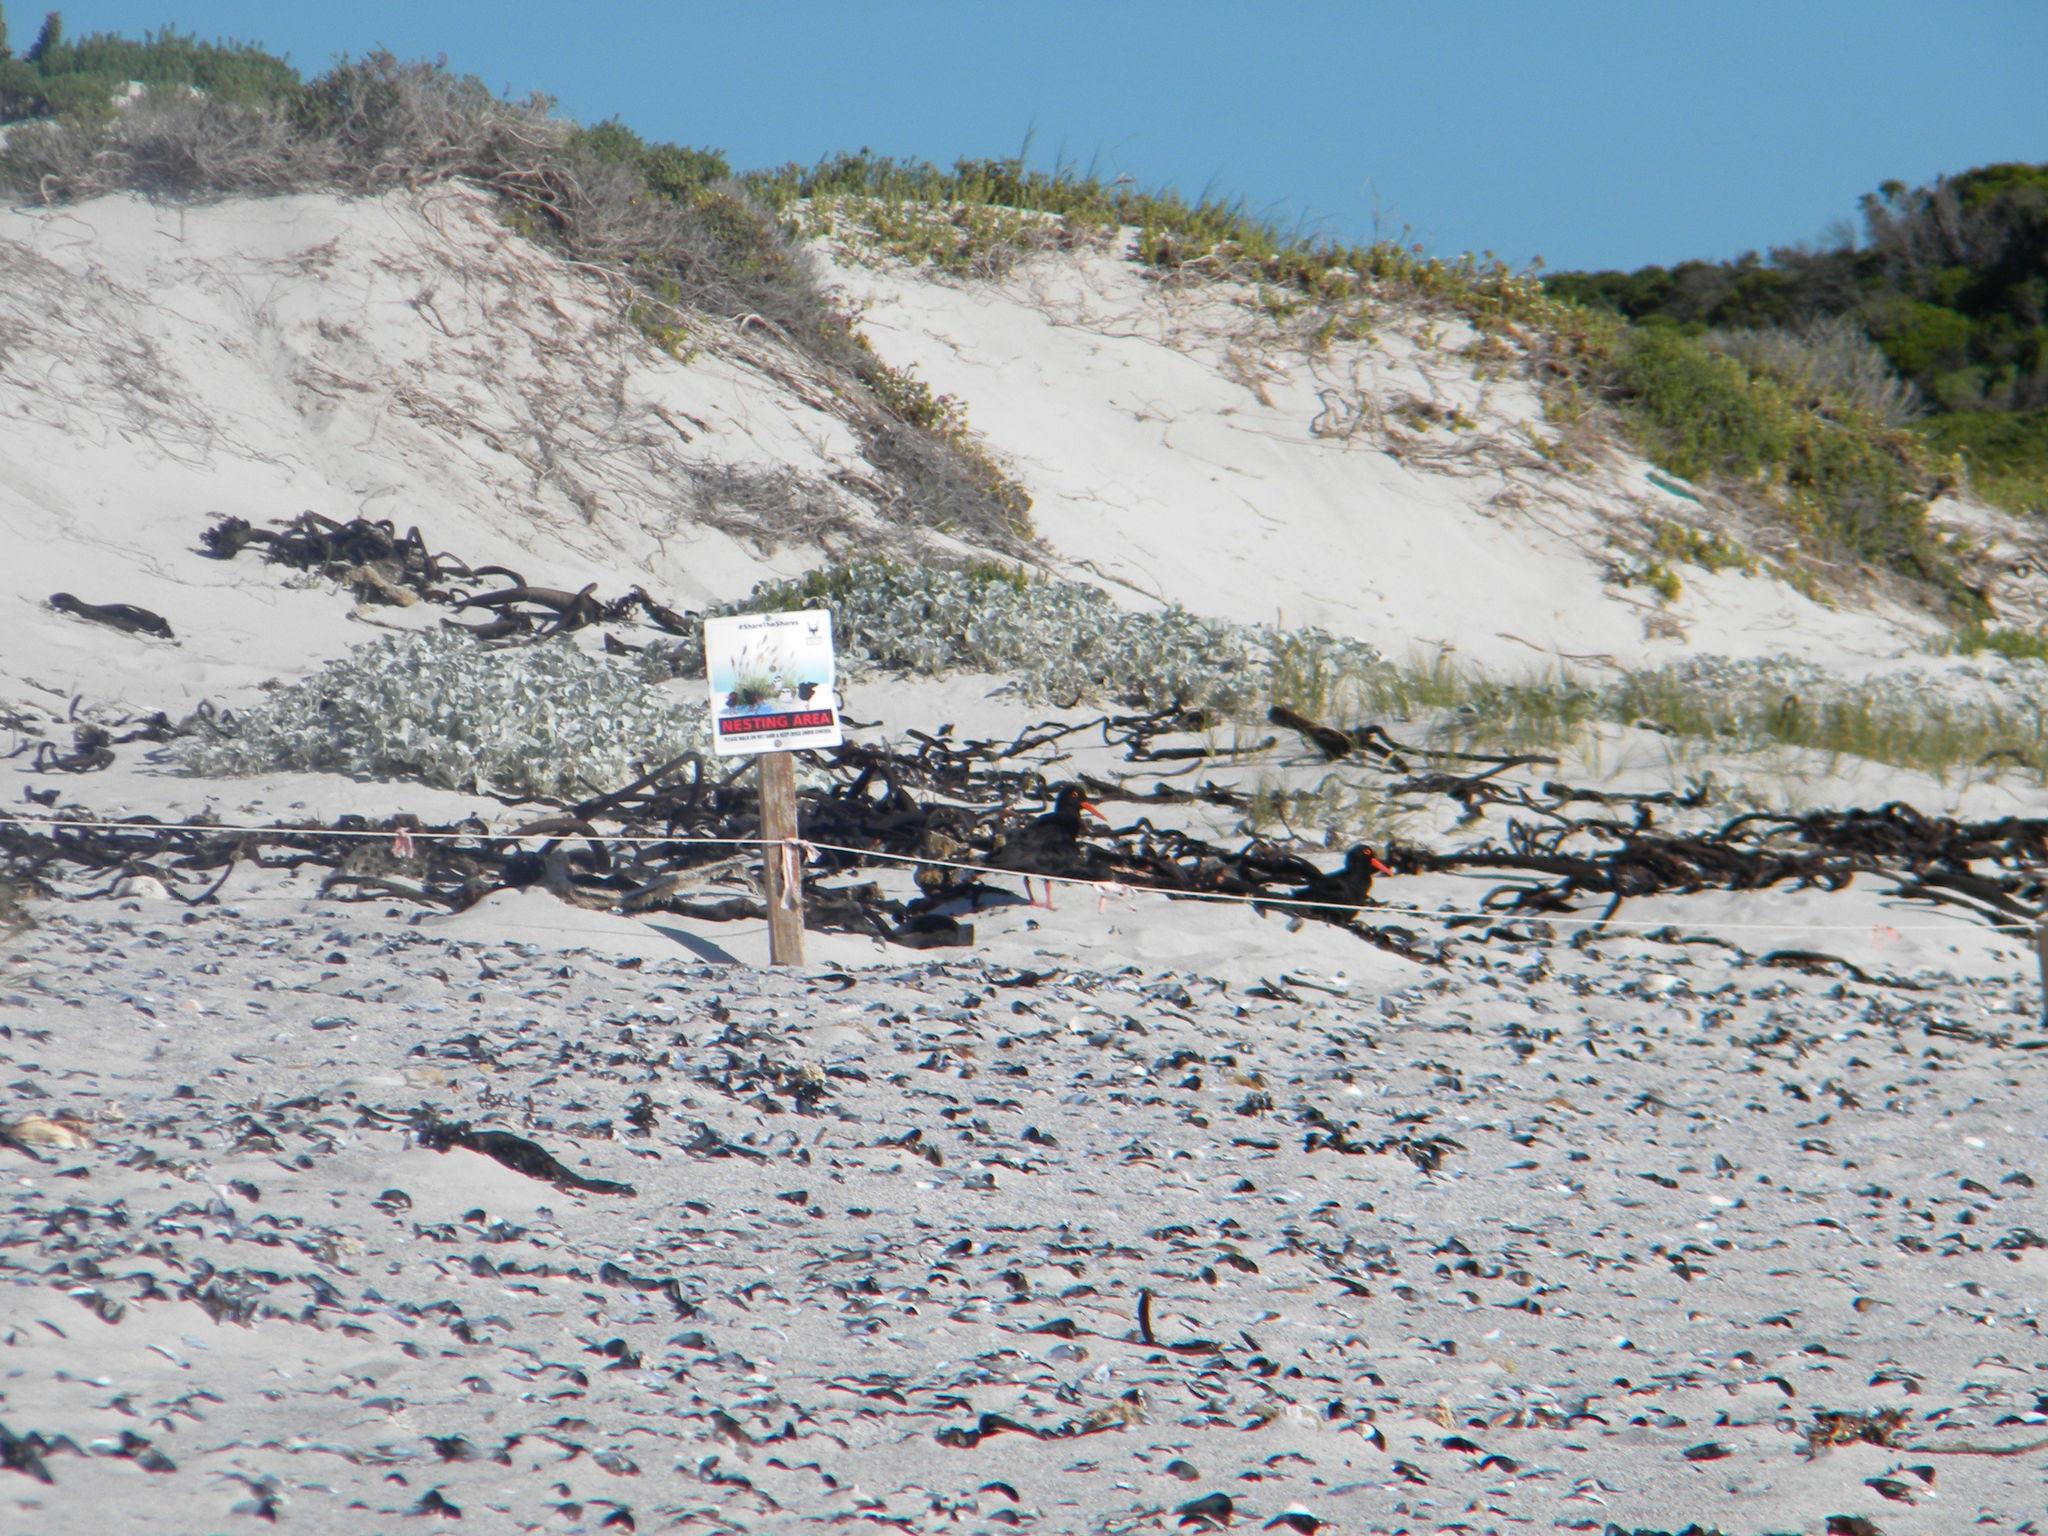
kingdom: Animalia
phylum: Chordata
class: Aves
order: Charadriiformes
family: Haematopodidae
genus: Haematopus
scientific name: Haematopus moquini
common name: African oystercatcher
